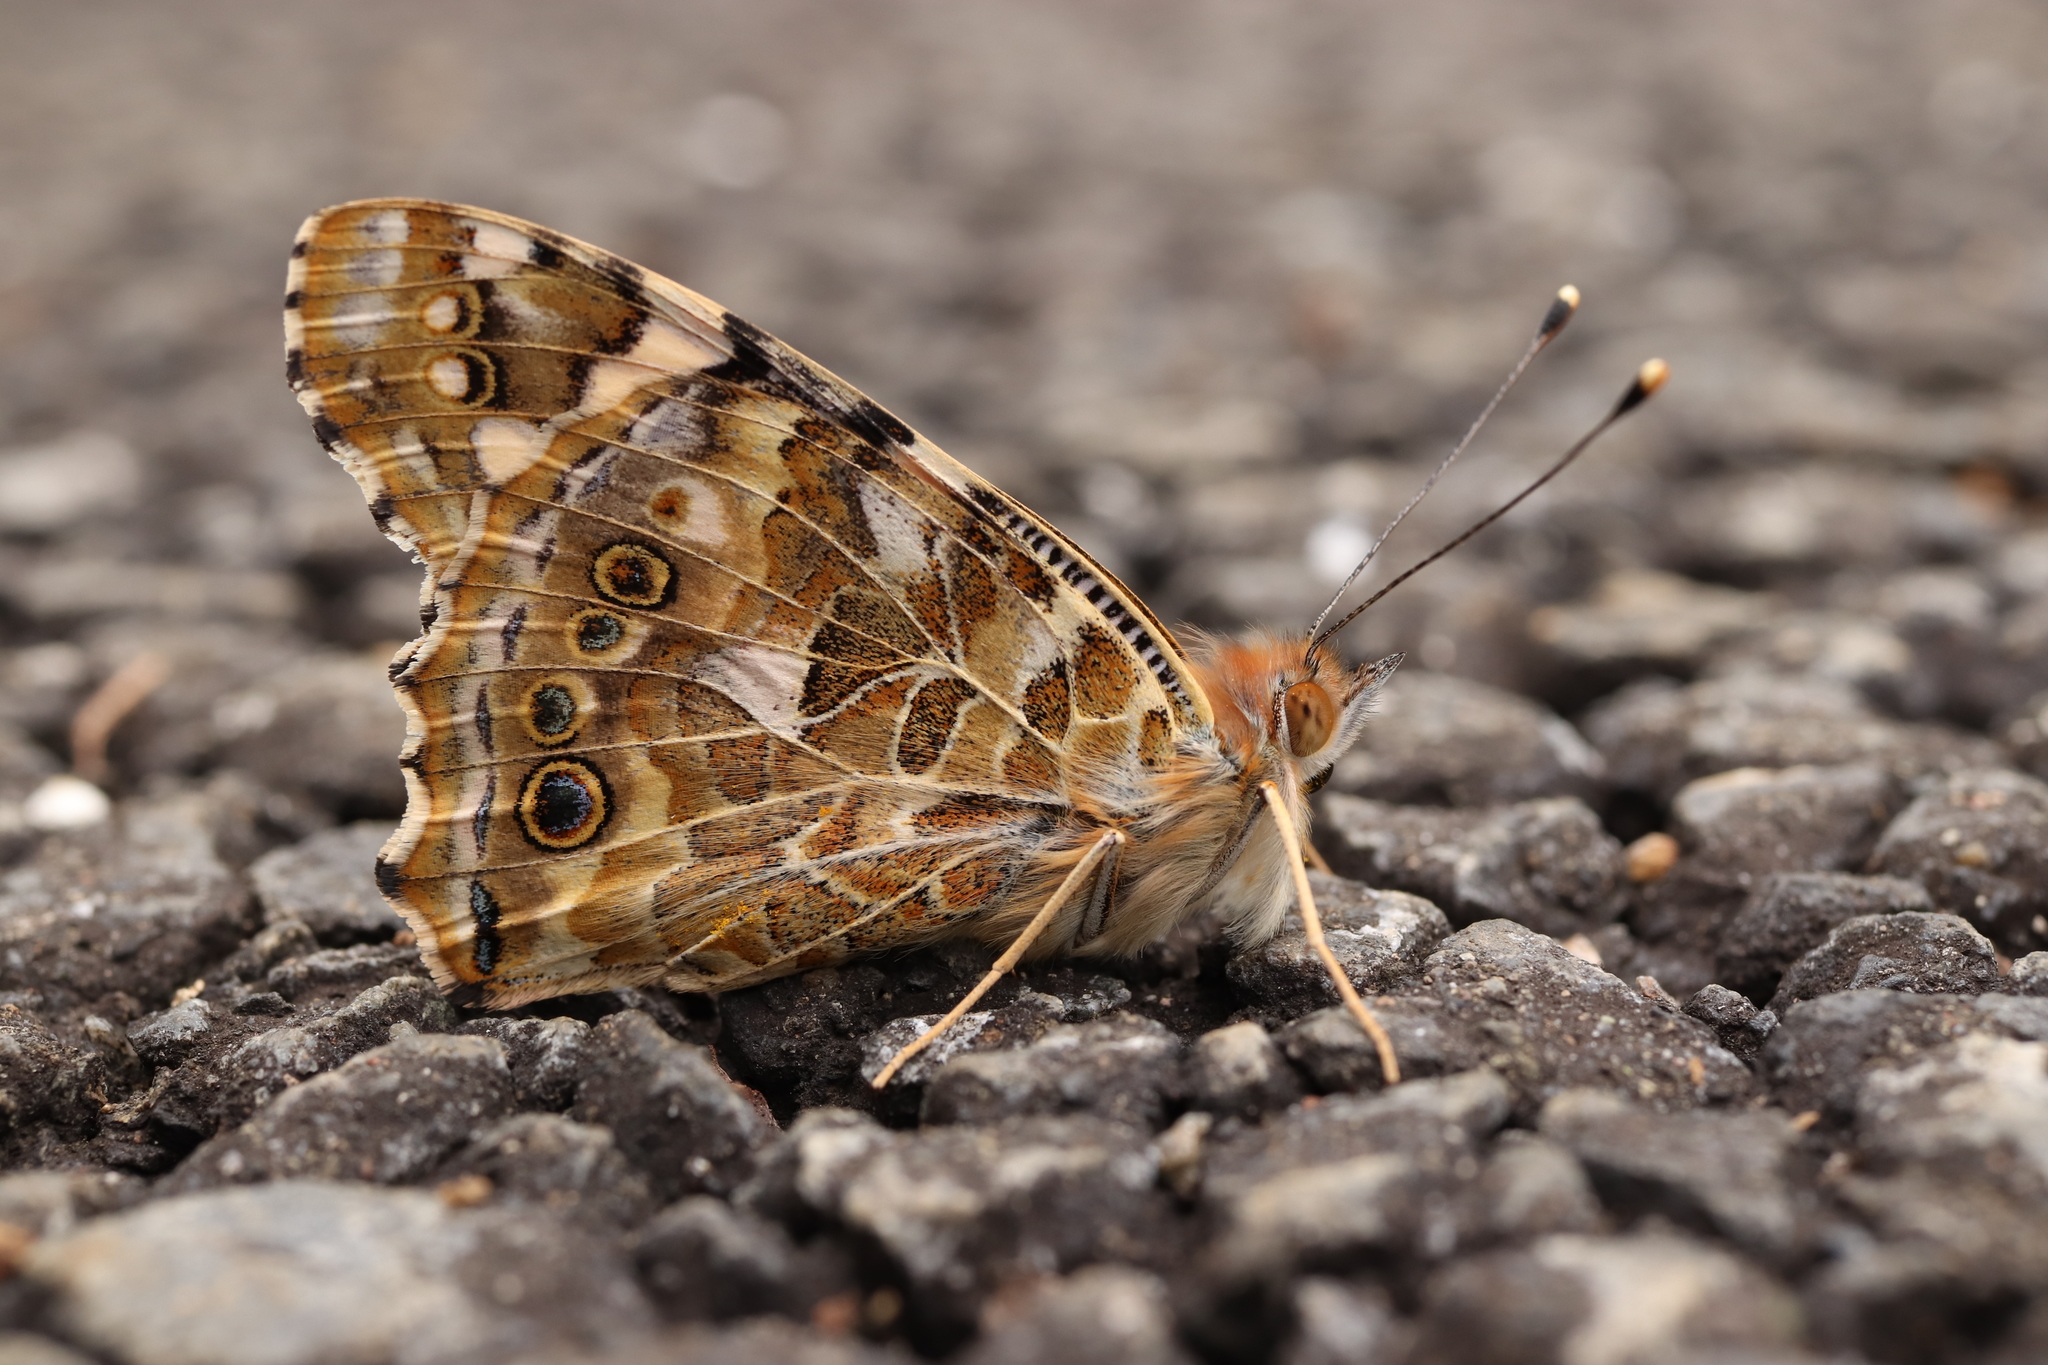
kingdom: Animalia
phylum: Arthropoda
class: Insecta
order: Lepidoptera
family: Nymphalidae
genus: Vanessa
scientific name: Vanessa cardui
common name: Painted lady
